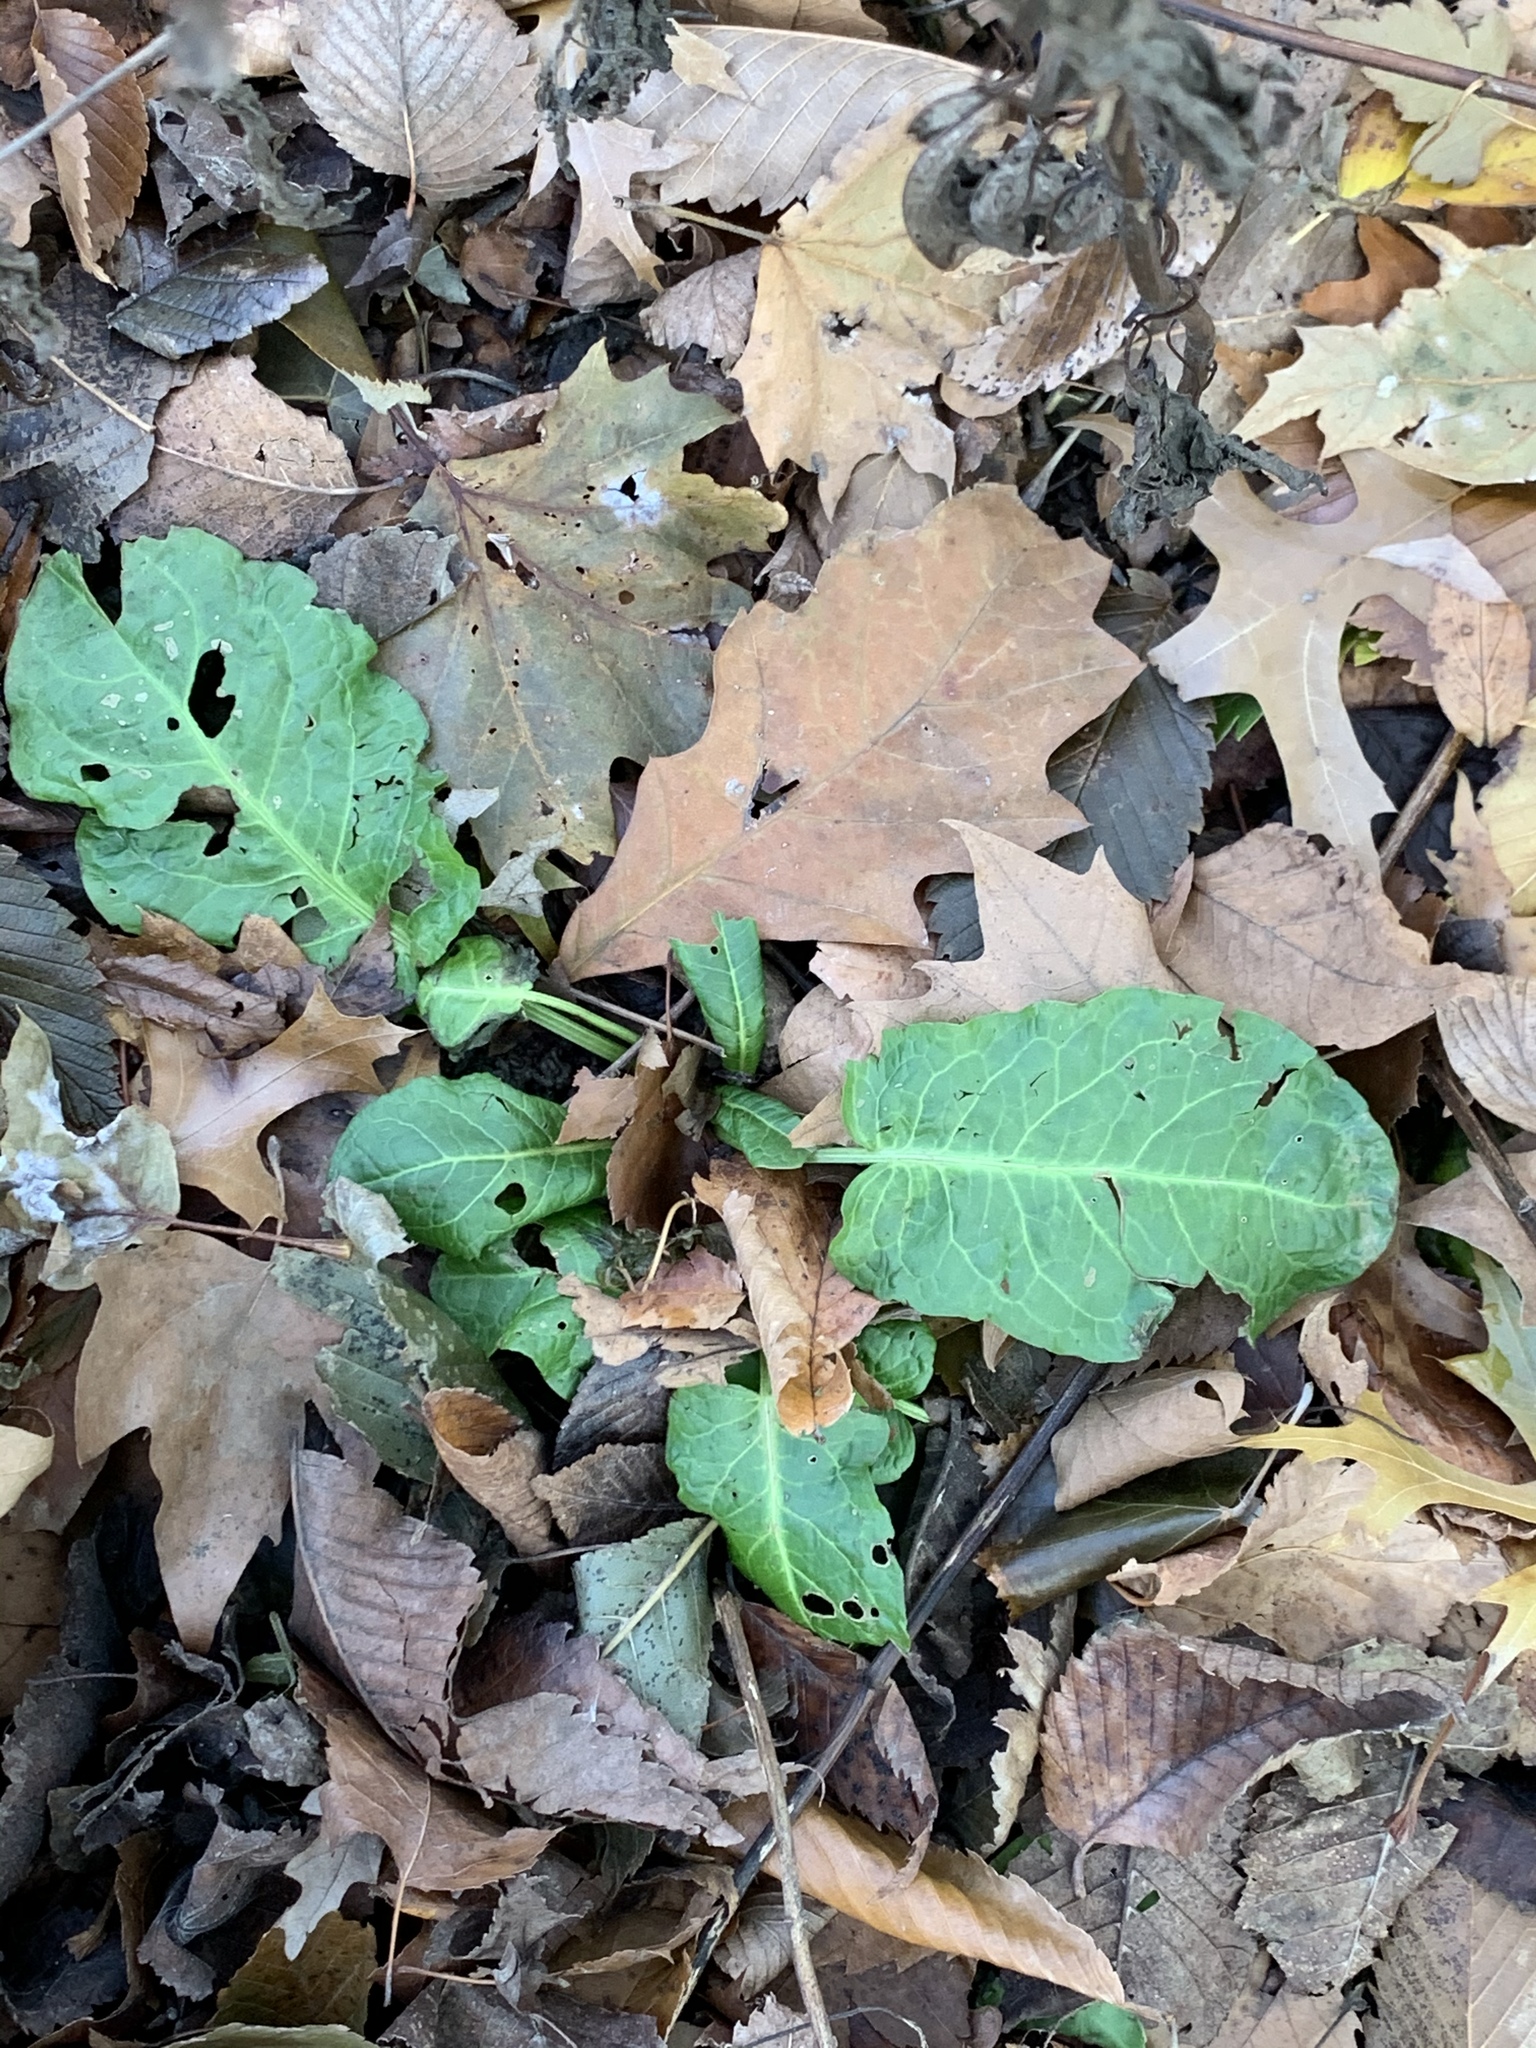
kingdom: Plantae
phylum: Tracheophyta
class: Magnoliopsida
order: Caryophyllales
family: Polygonaceae
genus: Rumex
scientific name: Rumex obtusifolius
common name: Bitter dock
